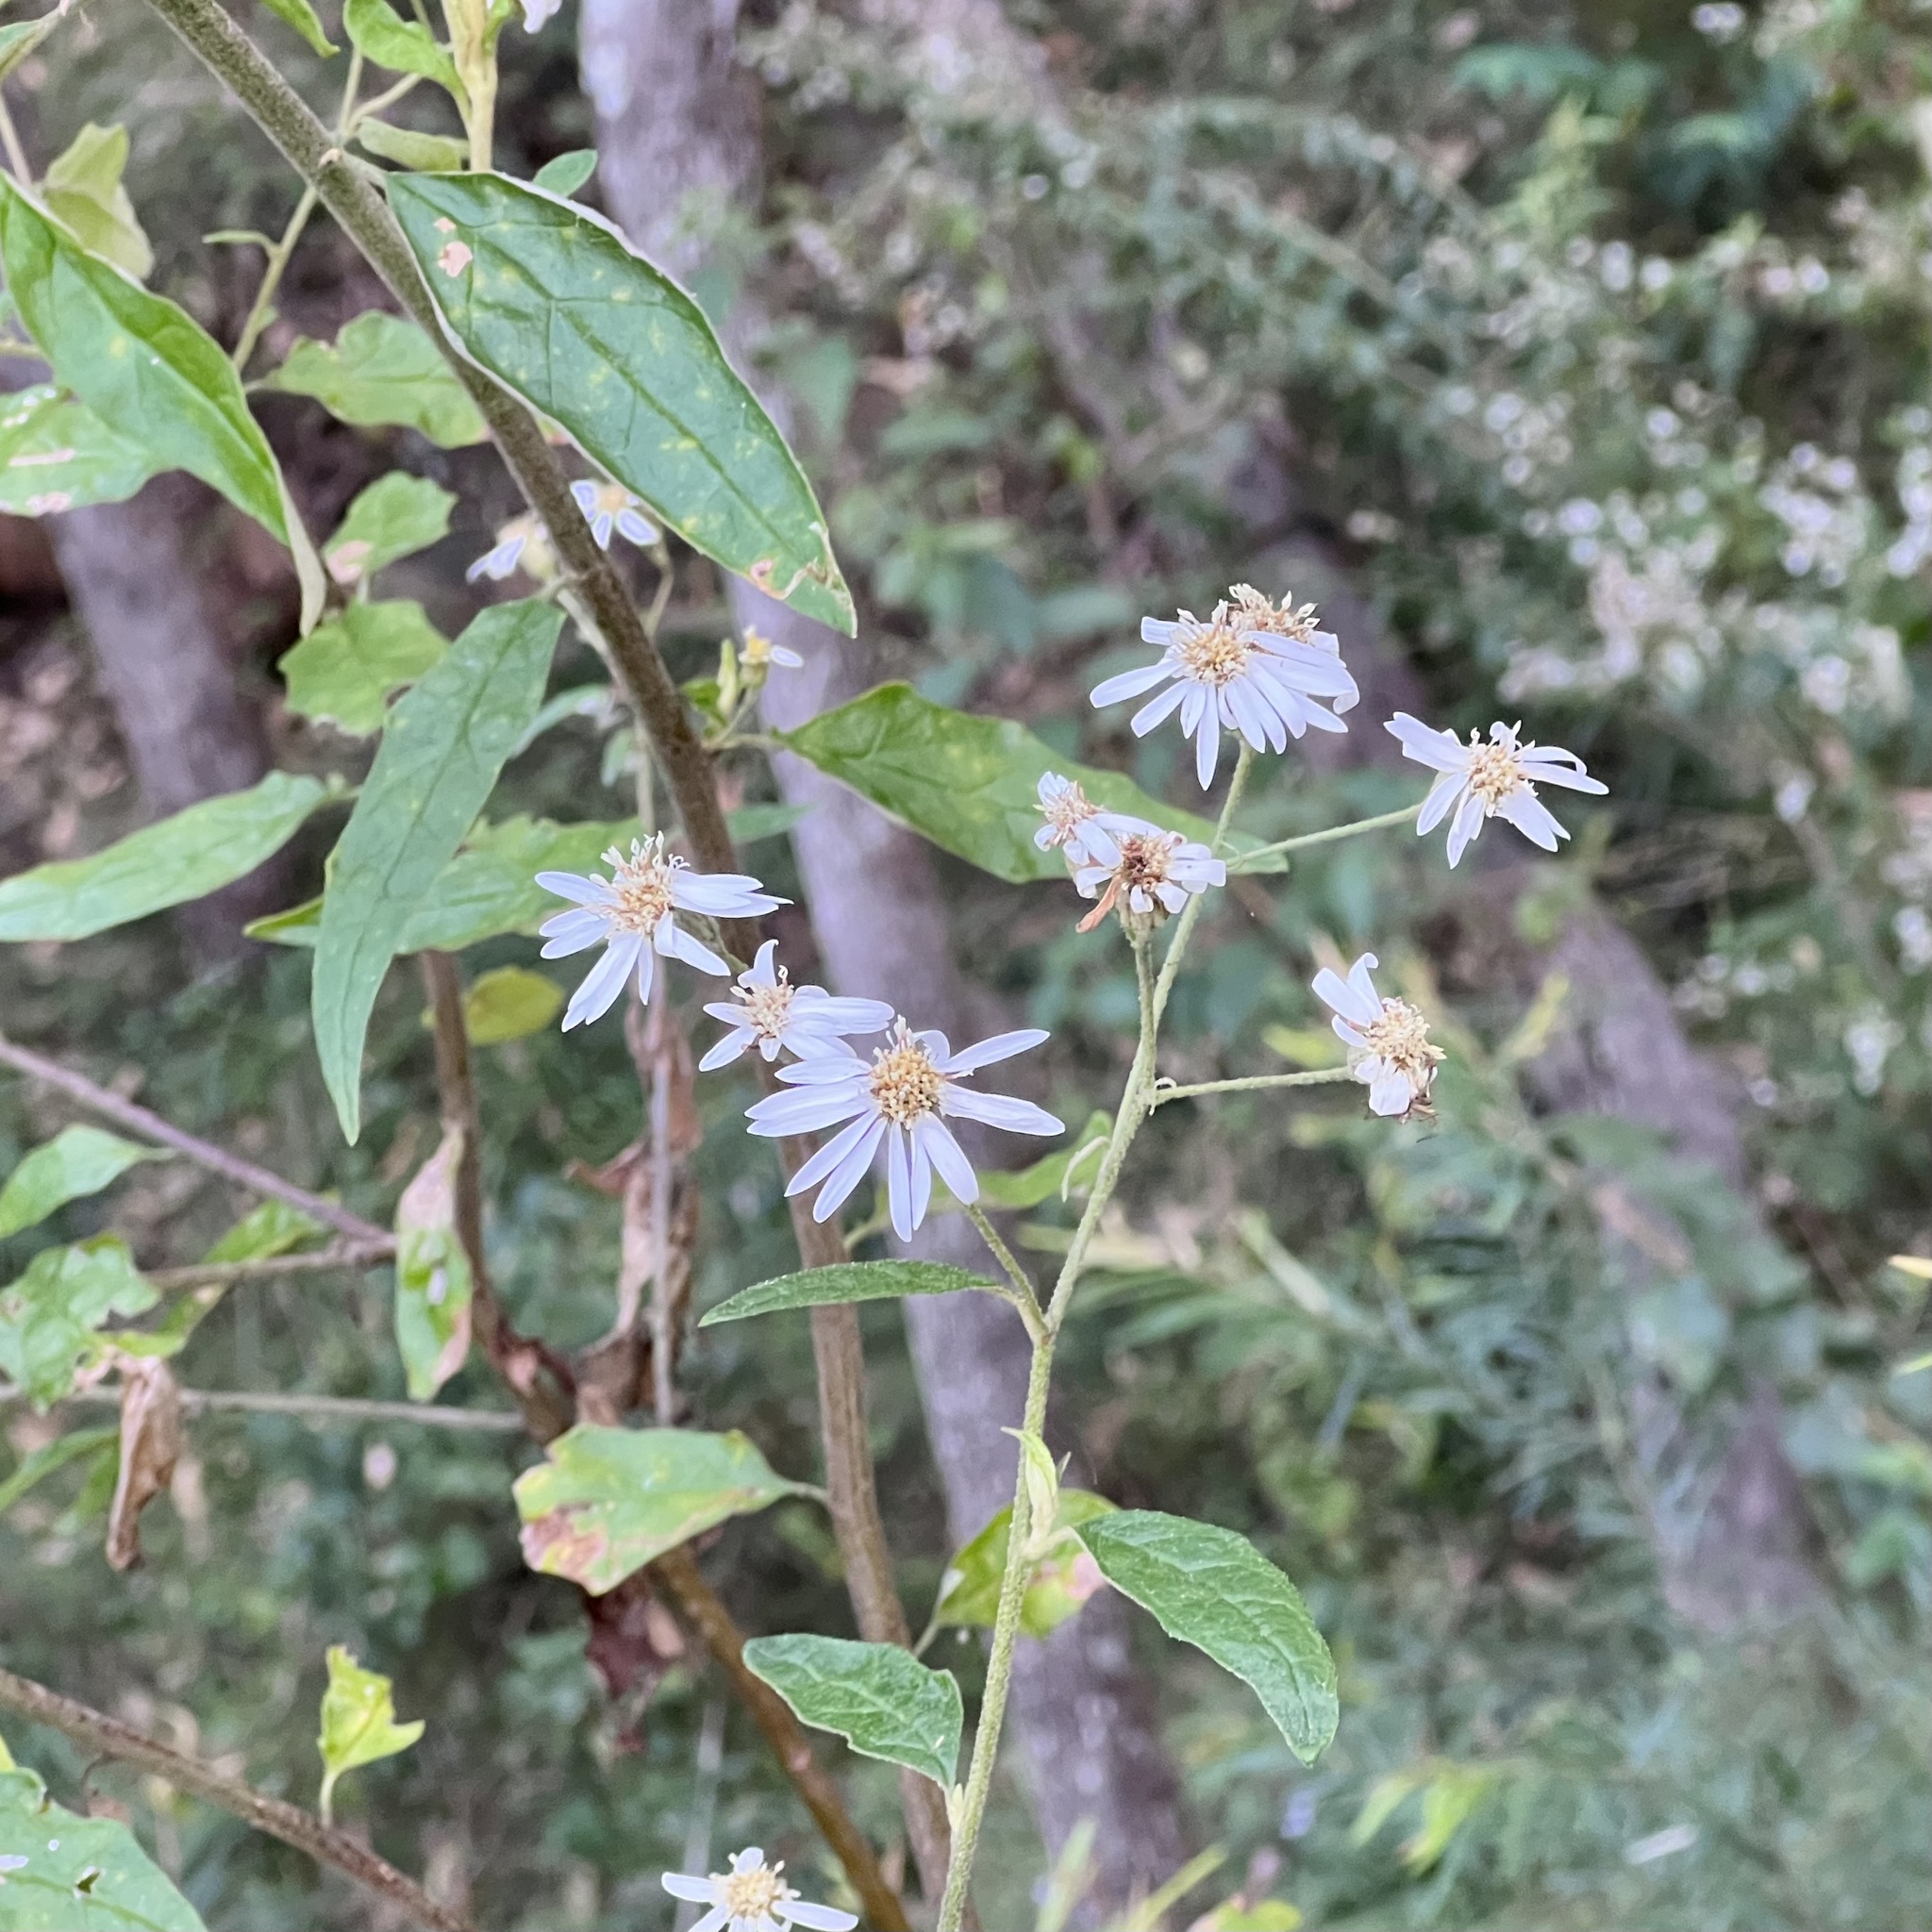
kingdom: Plantae
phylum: Tracheophyta
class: Magnoliopsida
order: Asterales
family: Asteraceae
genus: Olearia
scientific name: Olearia nernstii
